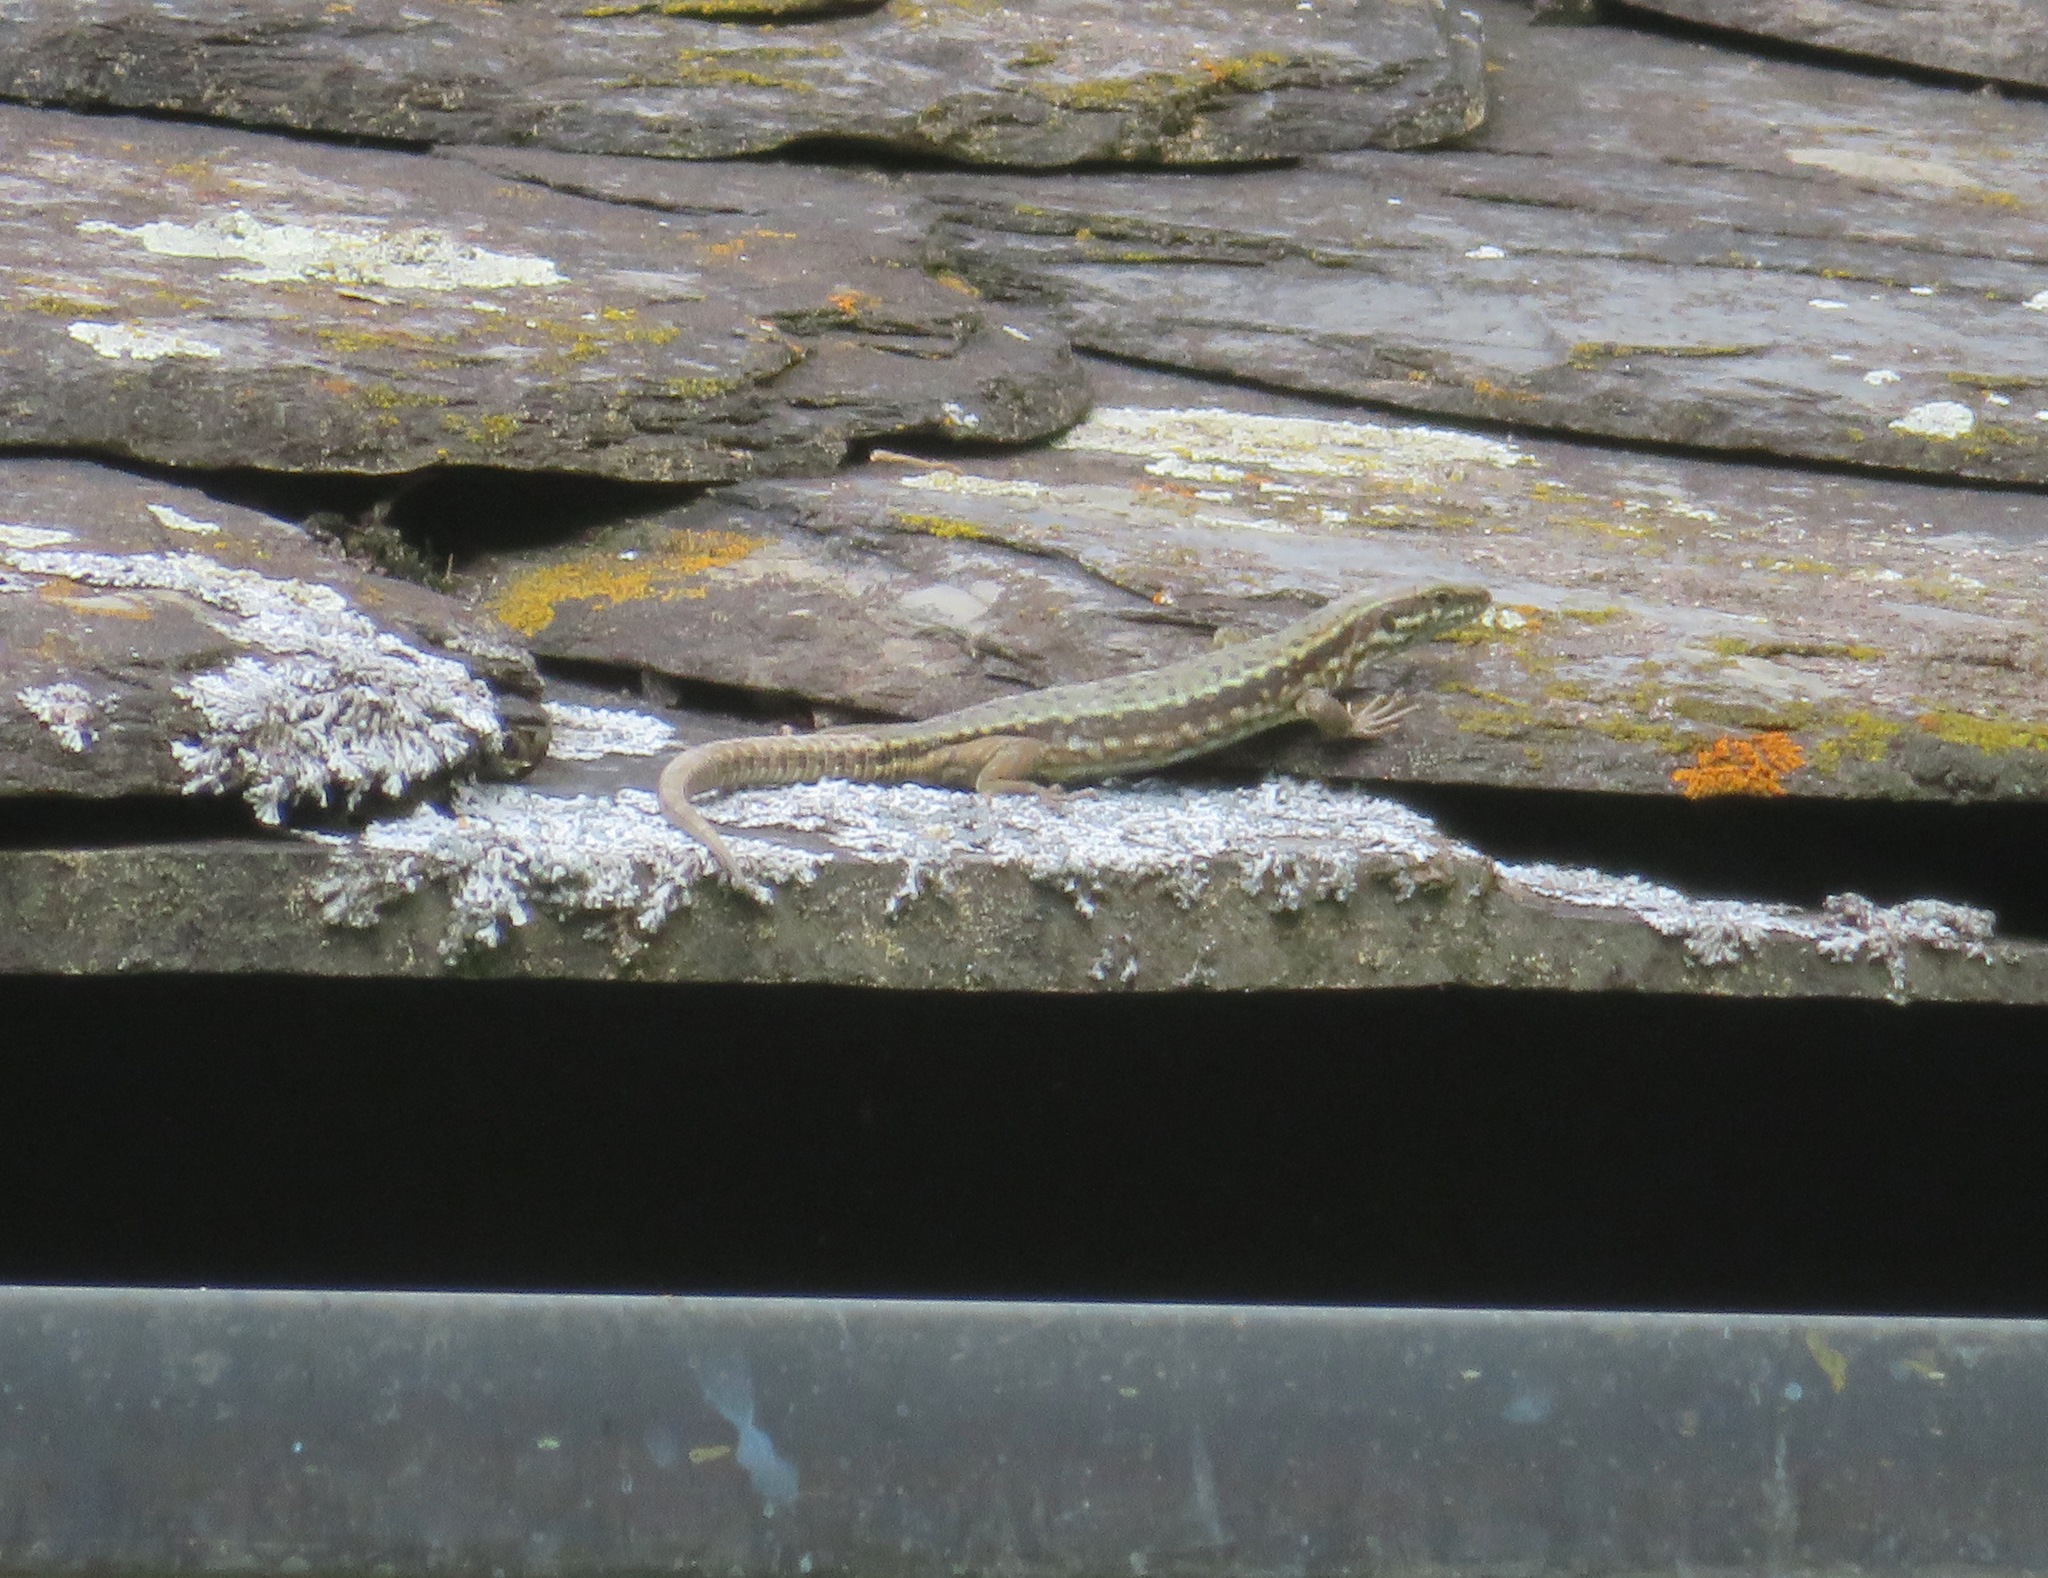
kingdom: Animalia
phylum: Chordata
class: Squamata
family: Lacertidae
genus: Podarcis
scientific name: Podarcis muralis
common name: Common wall lizard
